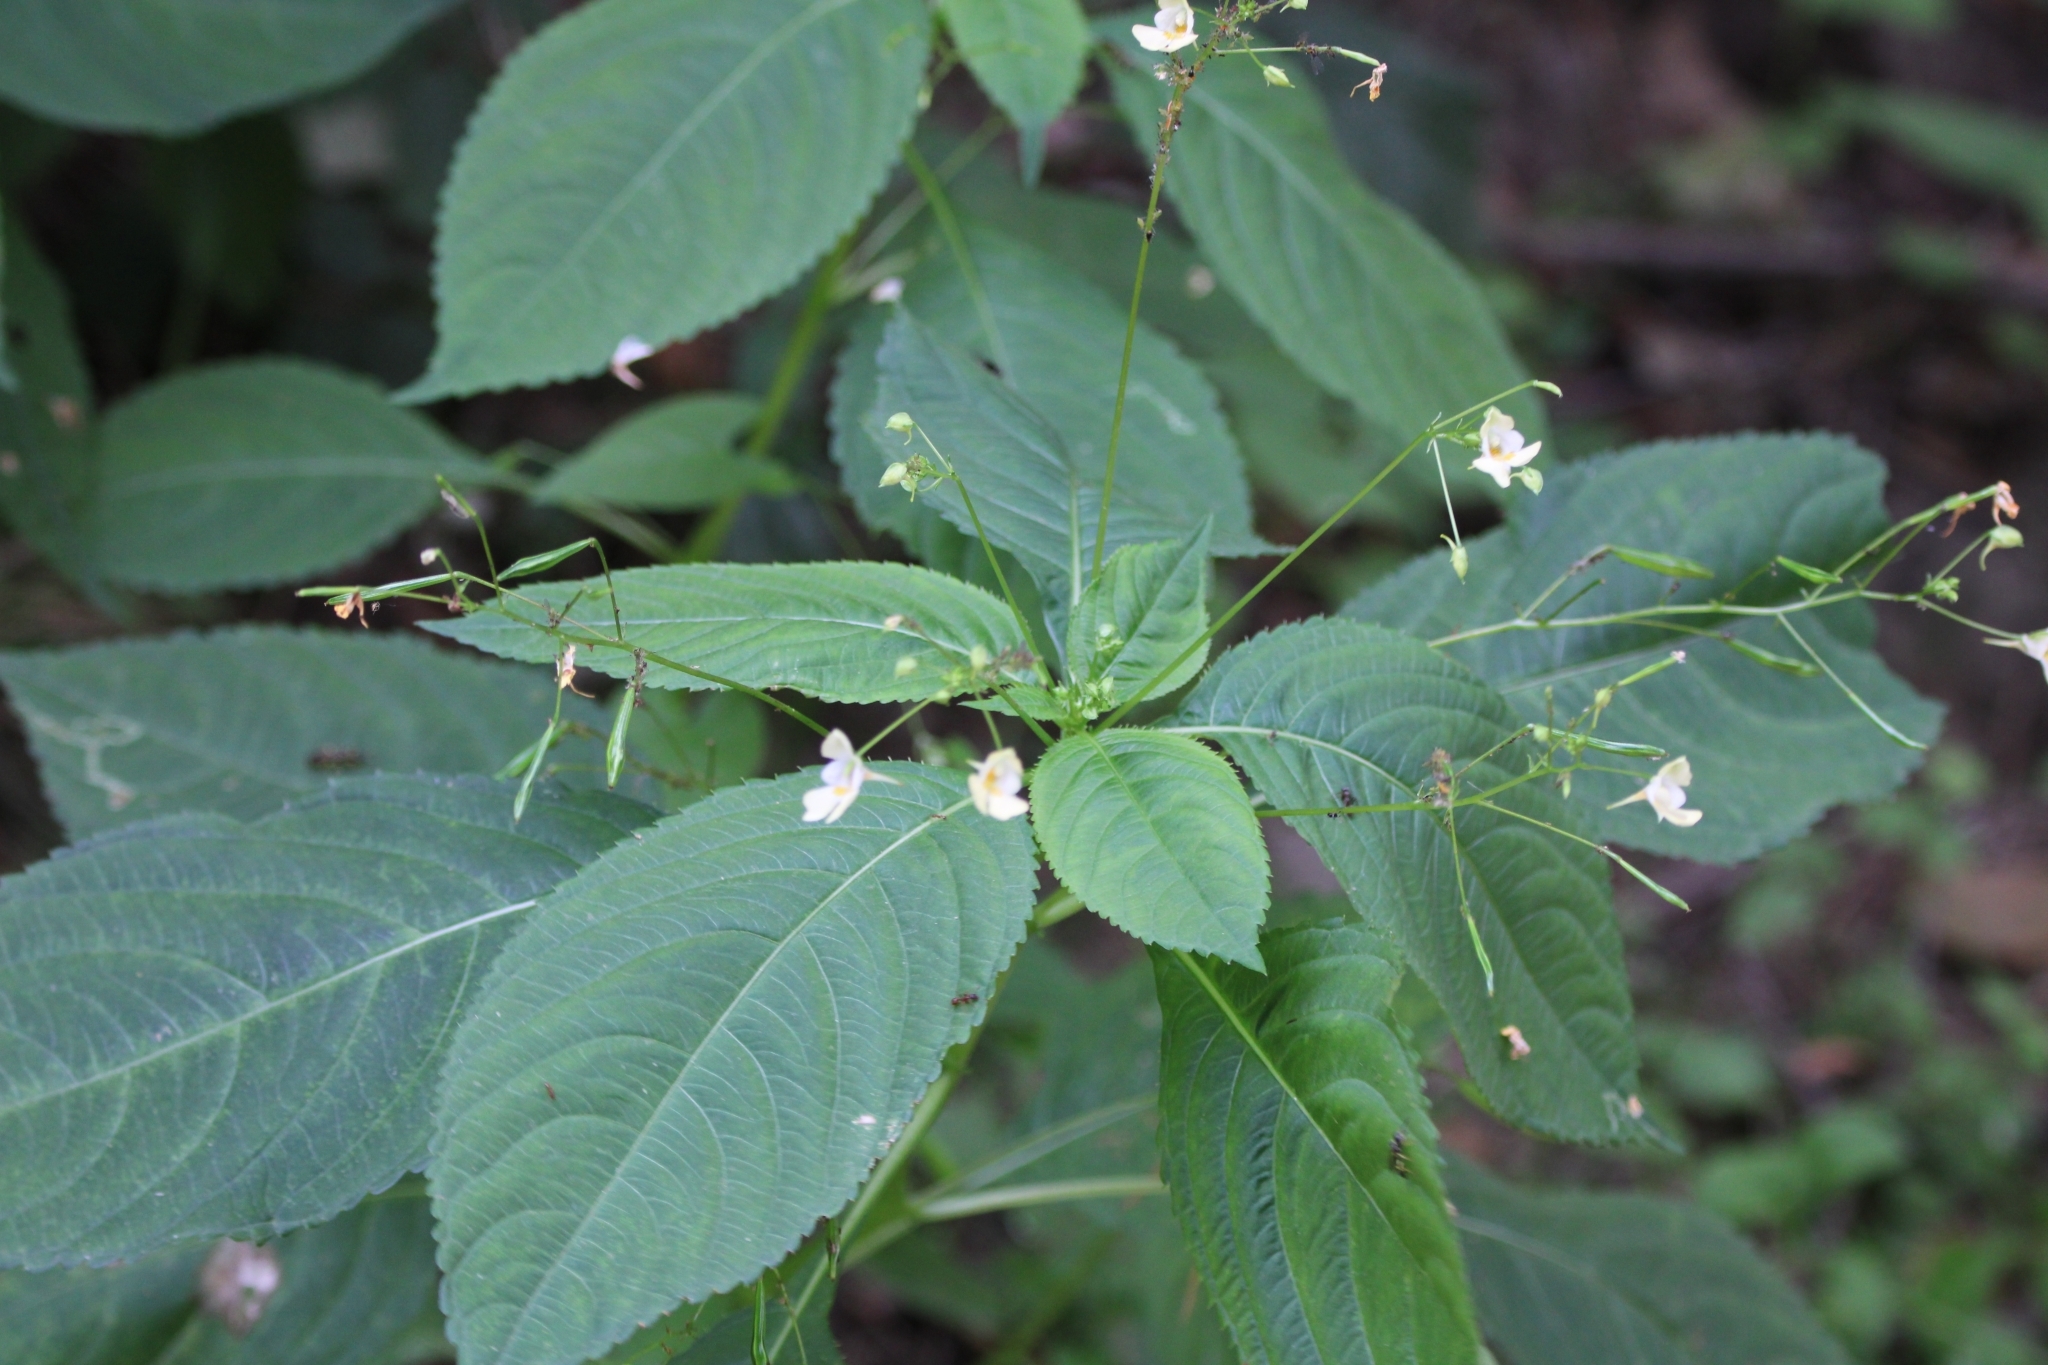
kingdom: Plantae
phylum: Tracheophyta
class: Magnoliopsida
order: Ericales
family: Balsaminaceae
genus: Impatiens
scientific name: Impatiens parviflora
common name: Small balsam
